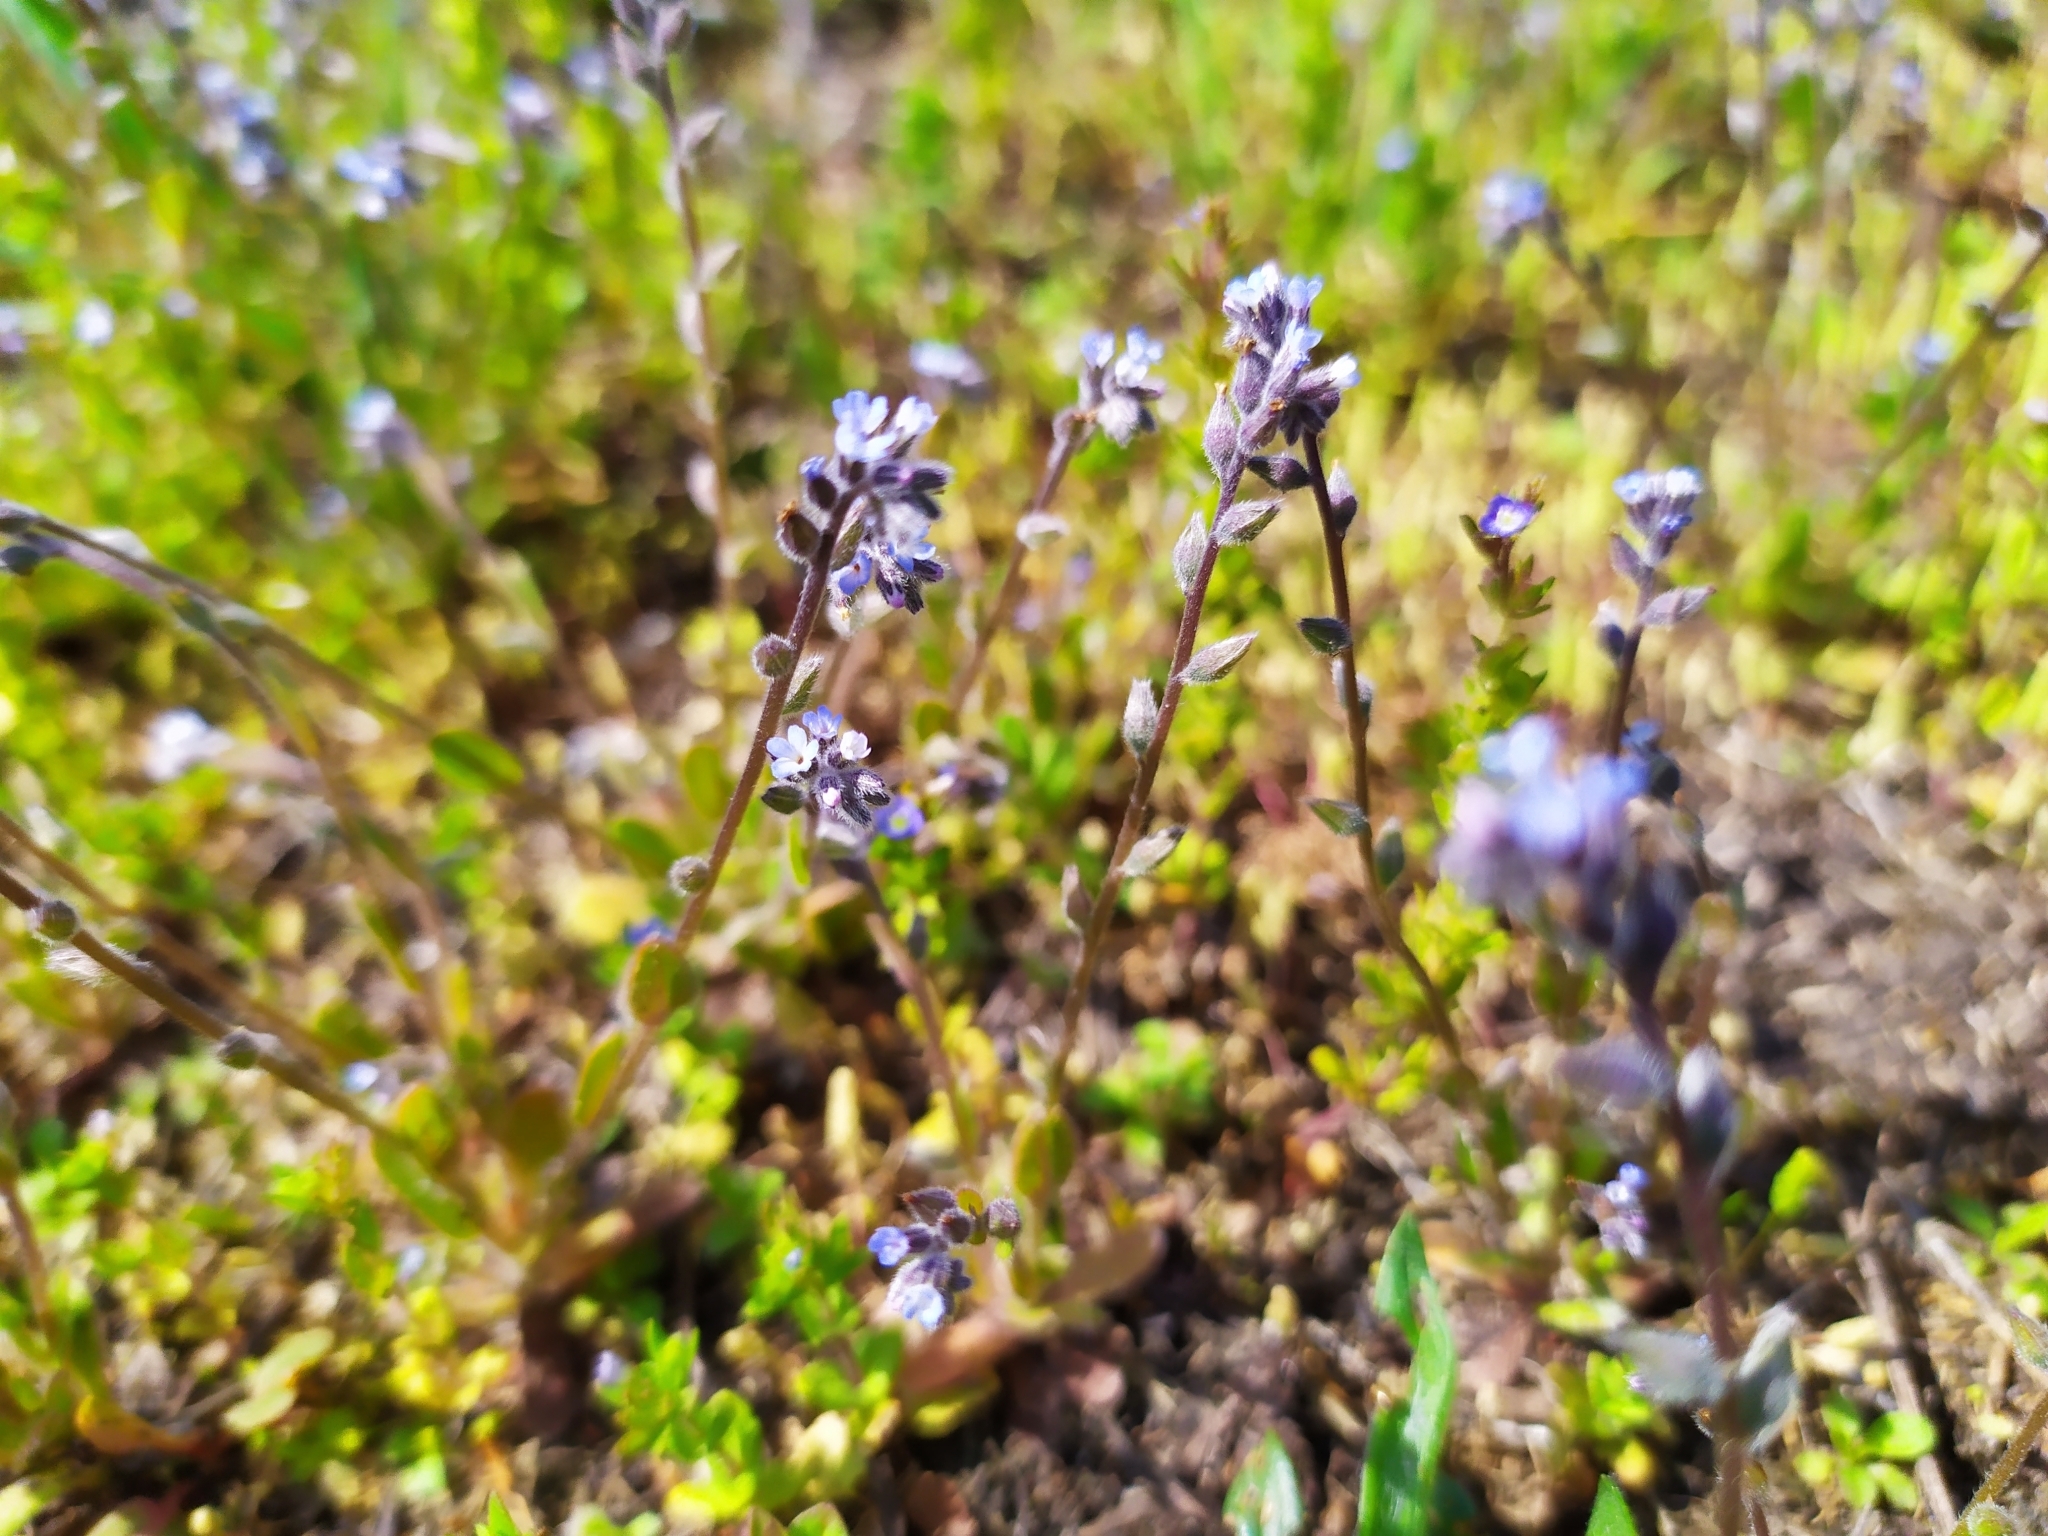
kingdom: Plantae
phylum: Tracheophyta
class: Magnoliopsida
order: Boraginales
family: Boraginaceae
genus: Myosotis
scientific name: Myosotis stricta
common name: Strict forget-me-not
